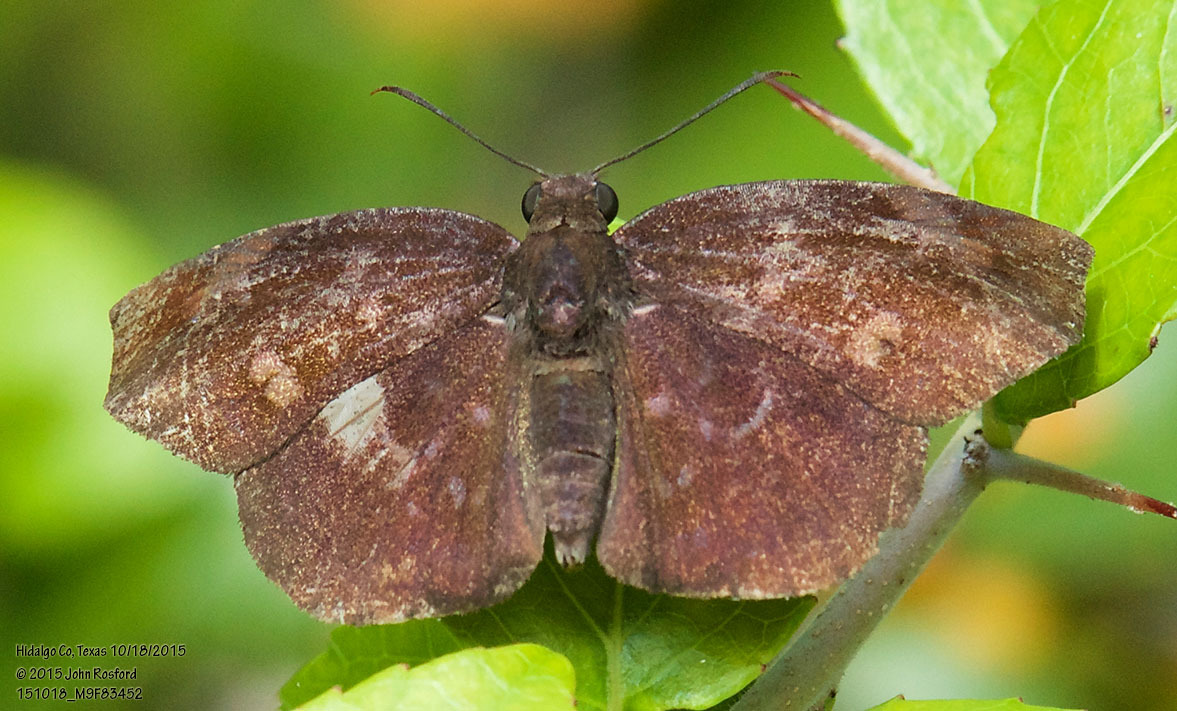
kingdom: Animalia
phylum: Arthropoda
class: Insecta
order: Lepidoptera
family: Hesperiidae
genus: Achlyodes
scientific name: Achlyodes thraso
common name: Sickle-winged skipper
